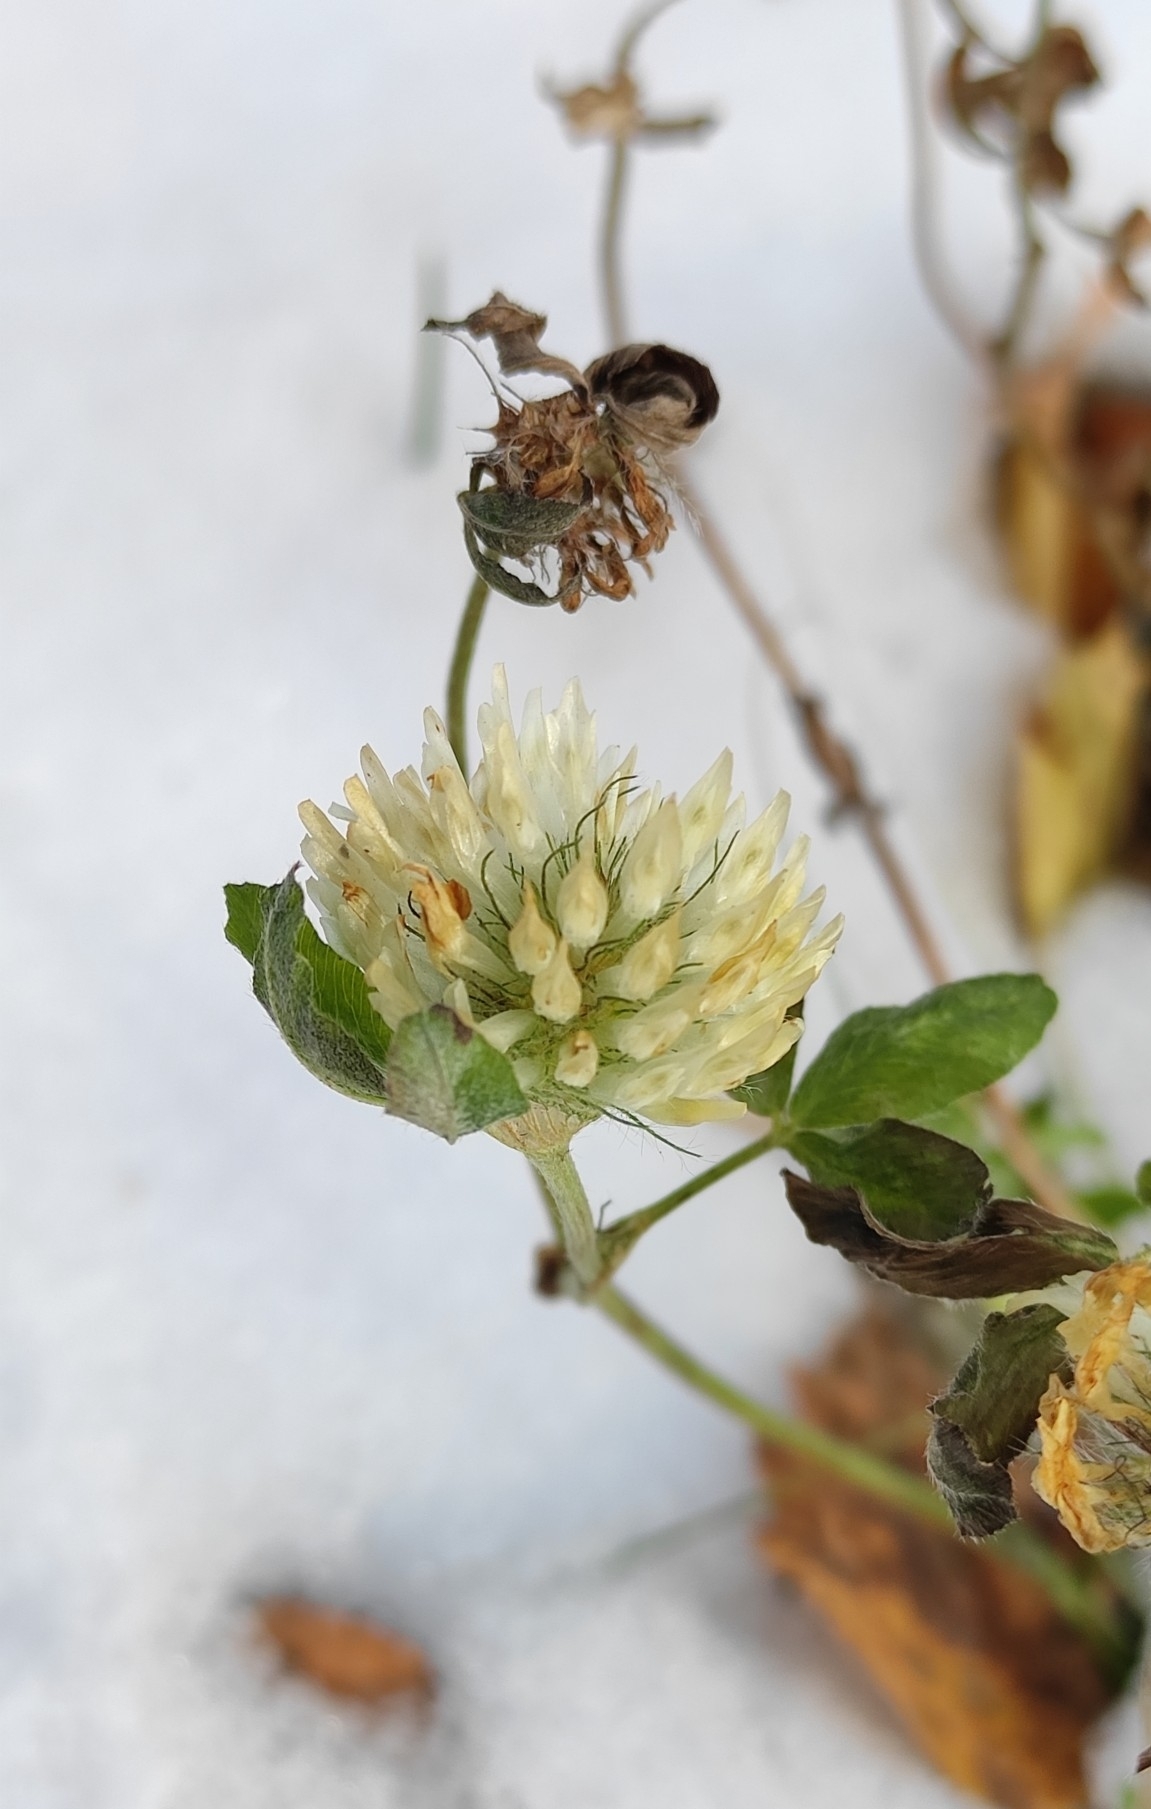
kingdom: Plantae
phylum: Tracheophyta
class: Magnoliopsida
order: Fabales
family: Fabaceae
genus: Trifolium
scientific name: Trifolium pratense
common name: Red clover
